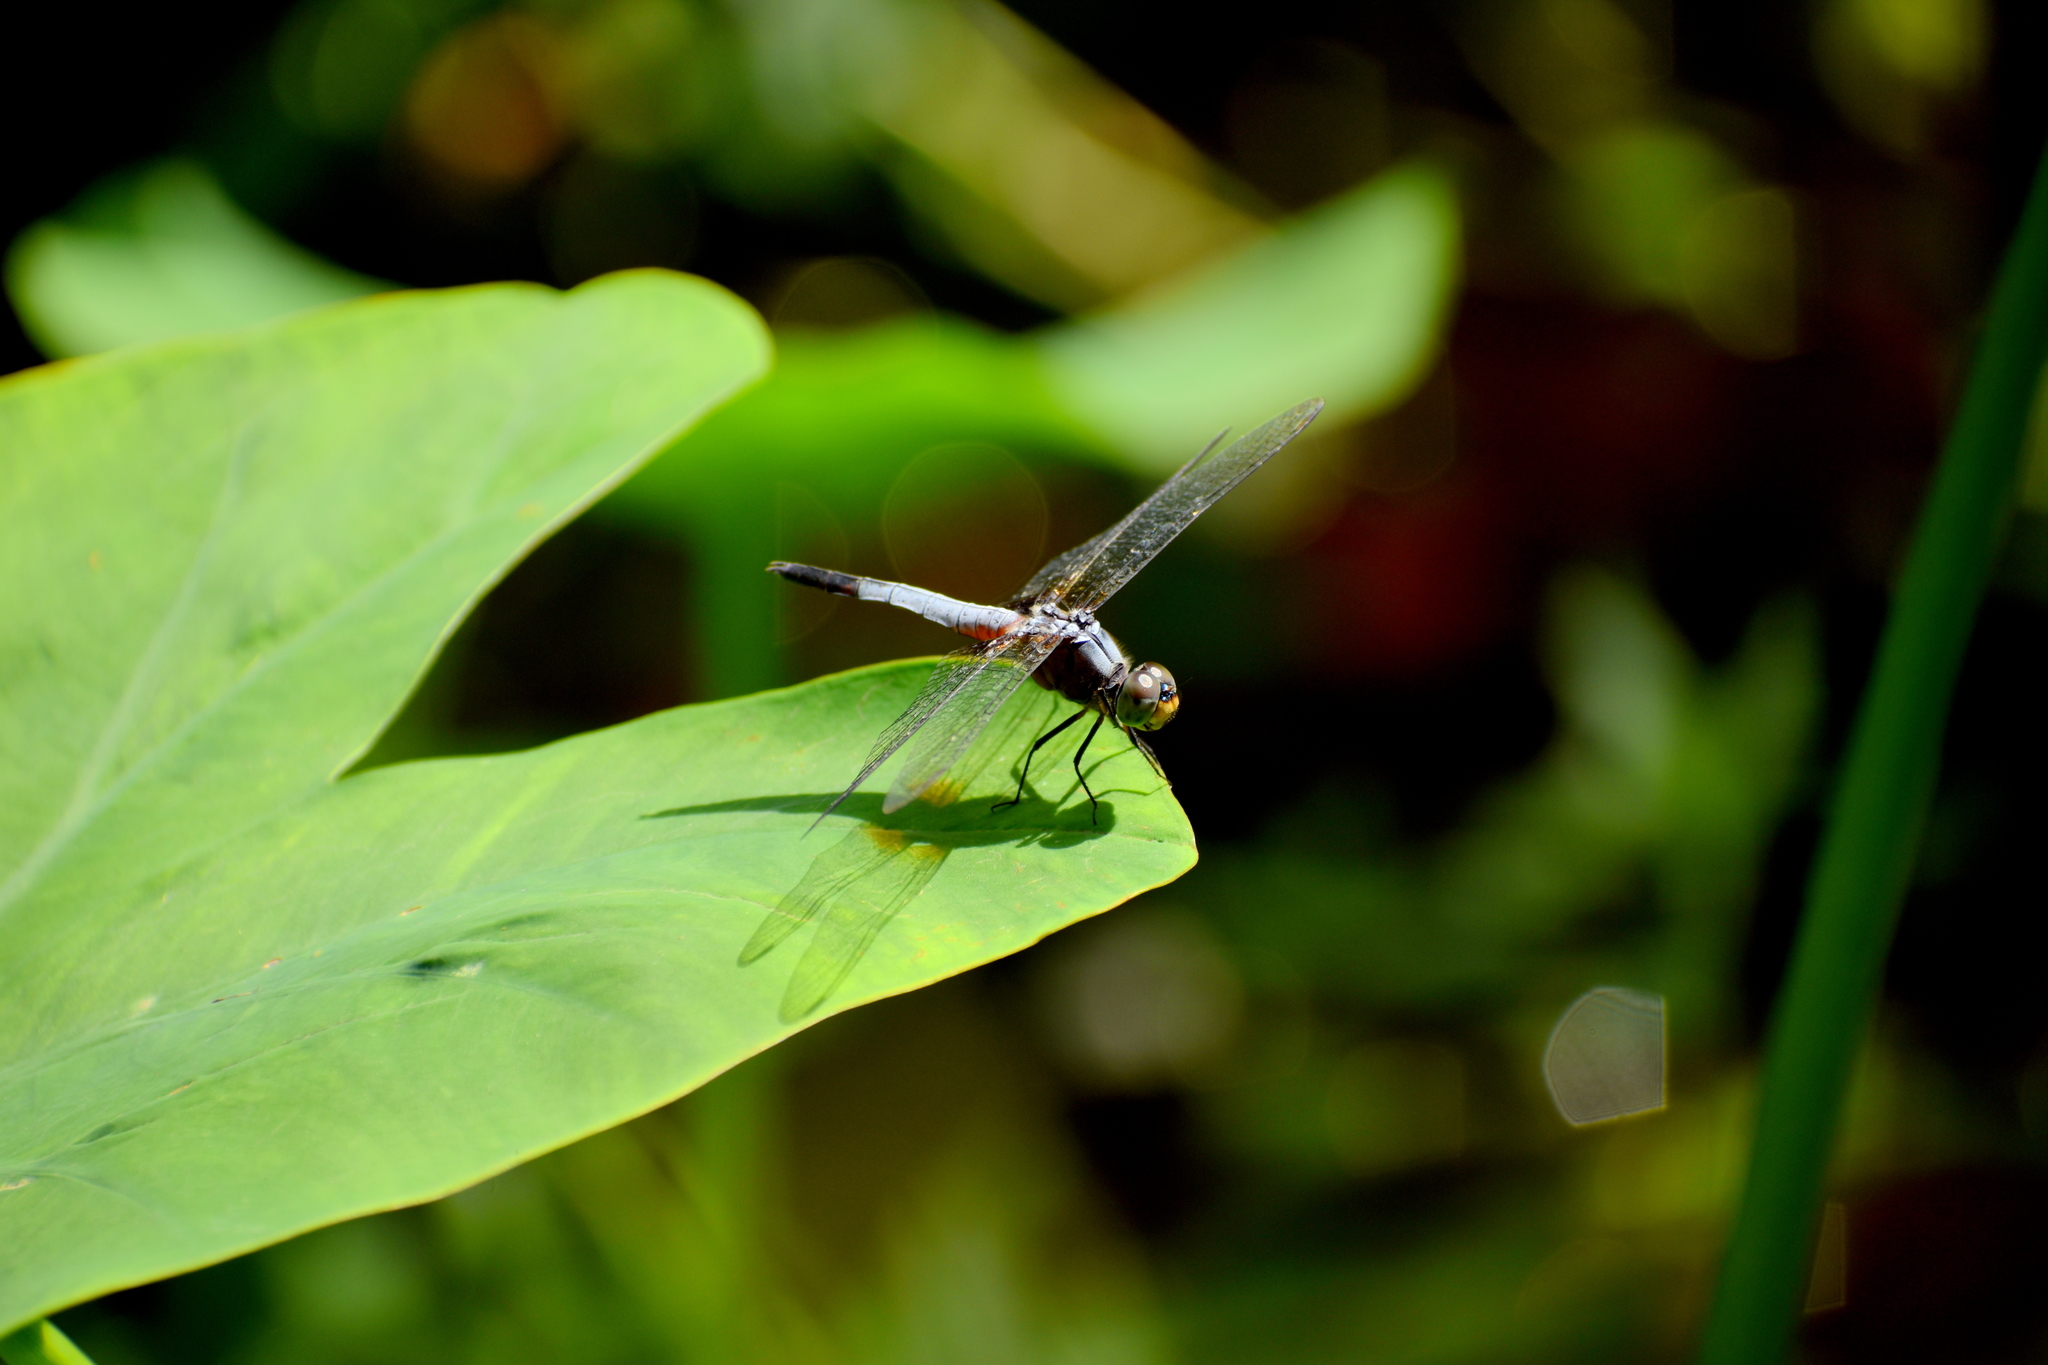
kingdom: Animalia
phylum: Arthropoda
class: Insecta
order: Odonata
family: Libellulidae
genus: Brachydiplax
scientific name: Brachydiplax chalybea
